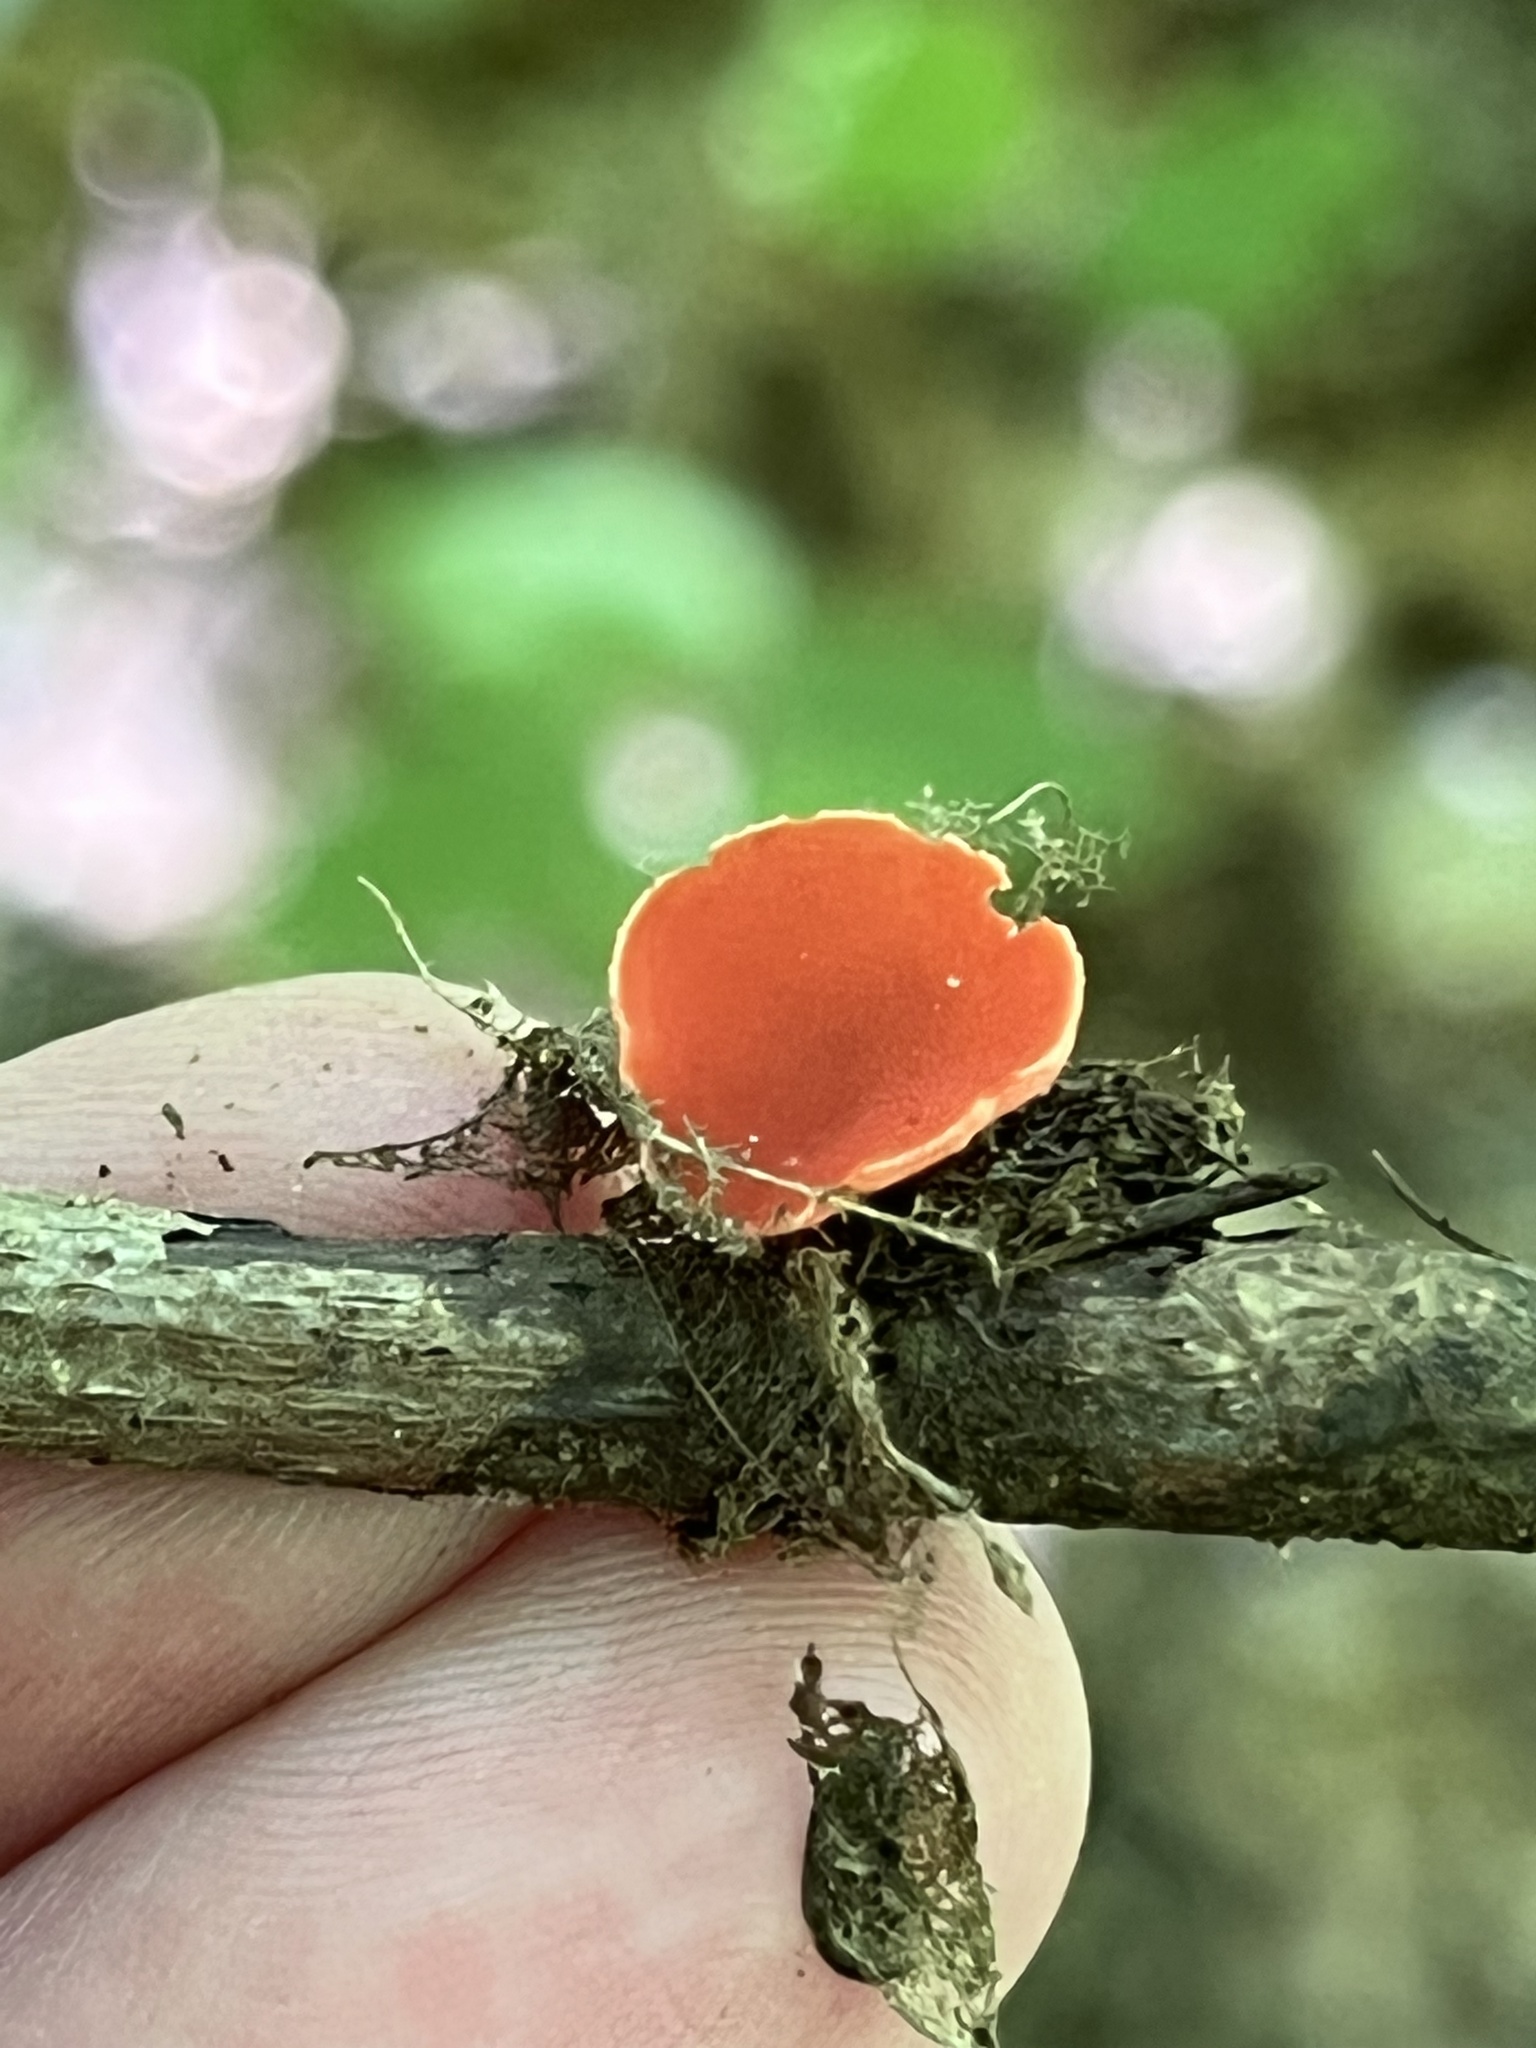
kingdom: Fungi
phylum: Ascomycota
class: Pezizomycetes
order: Pezizales
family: Sarcoscyphaceae
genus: Sarcoscypha
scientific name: Sarcoscypha occidentalis
